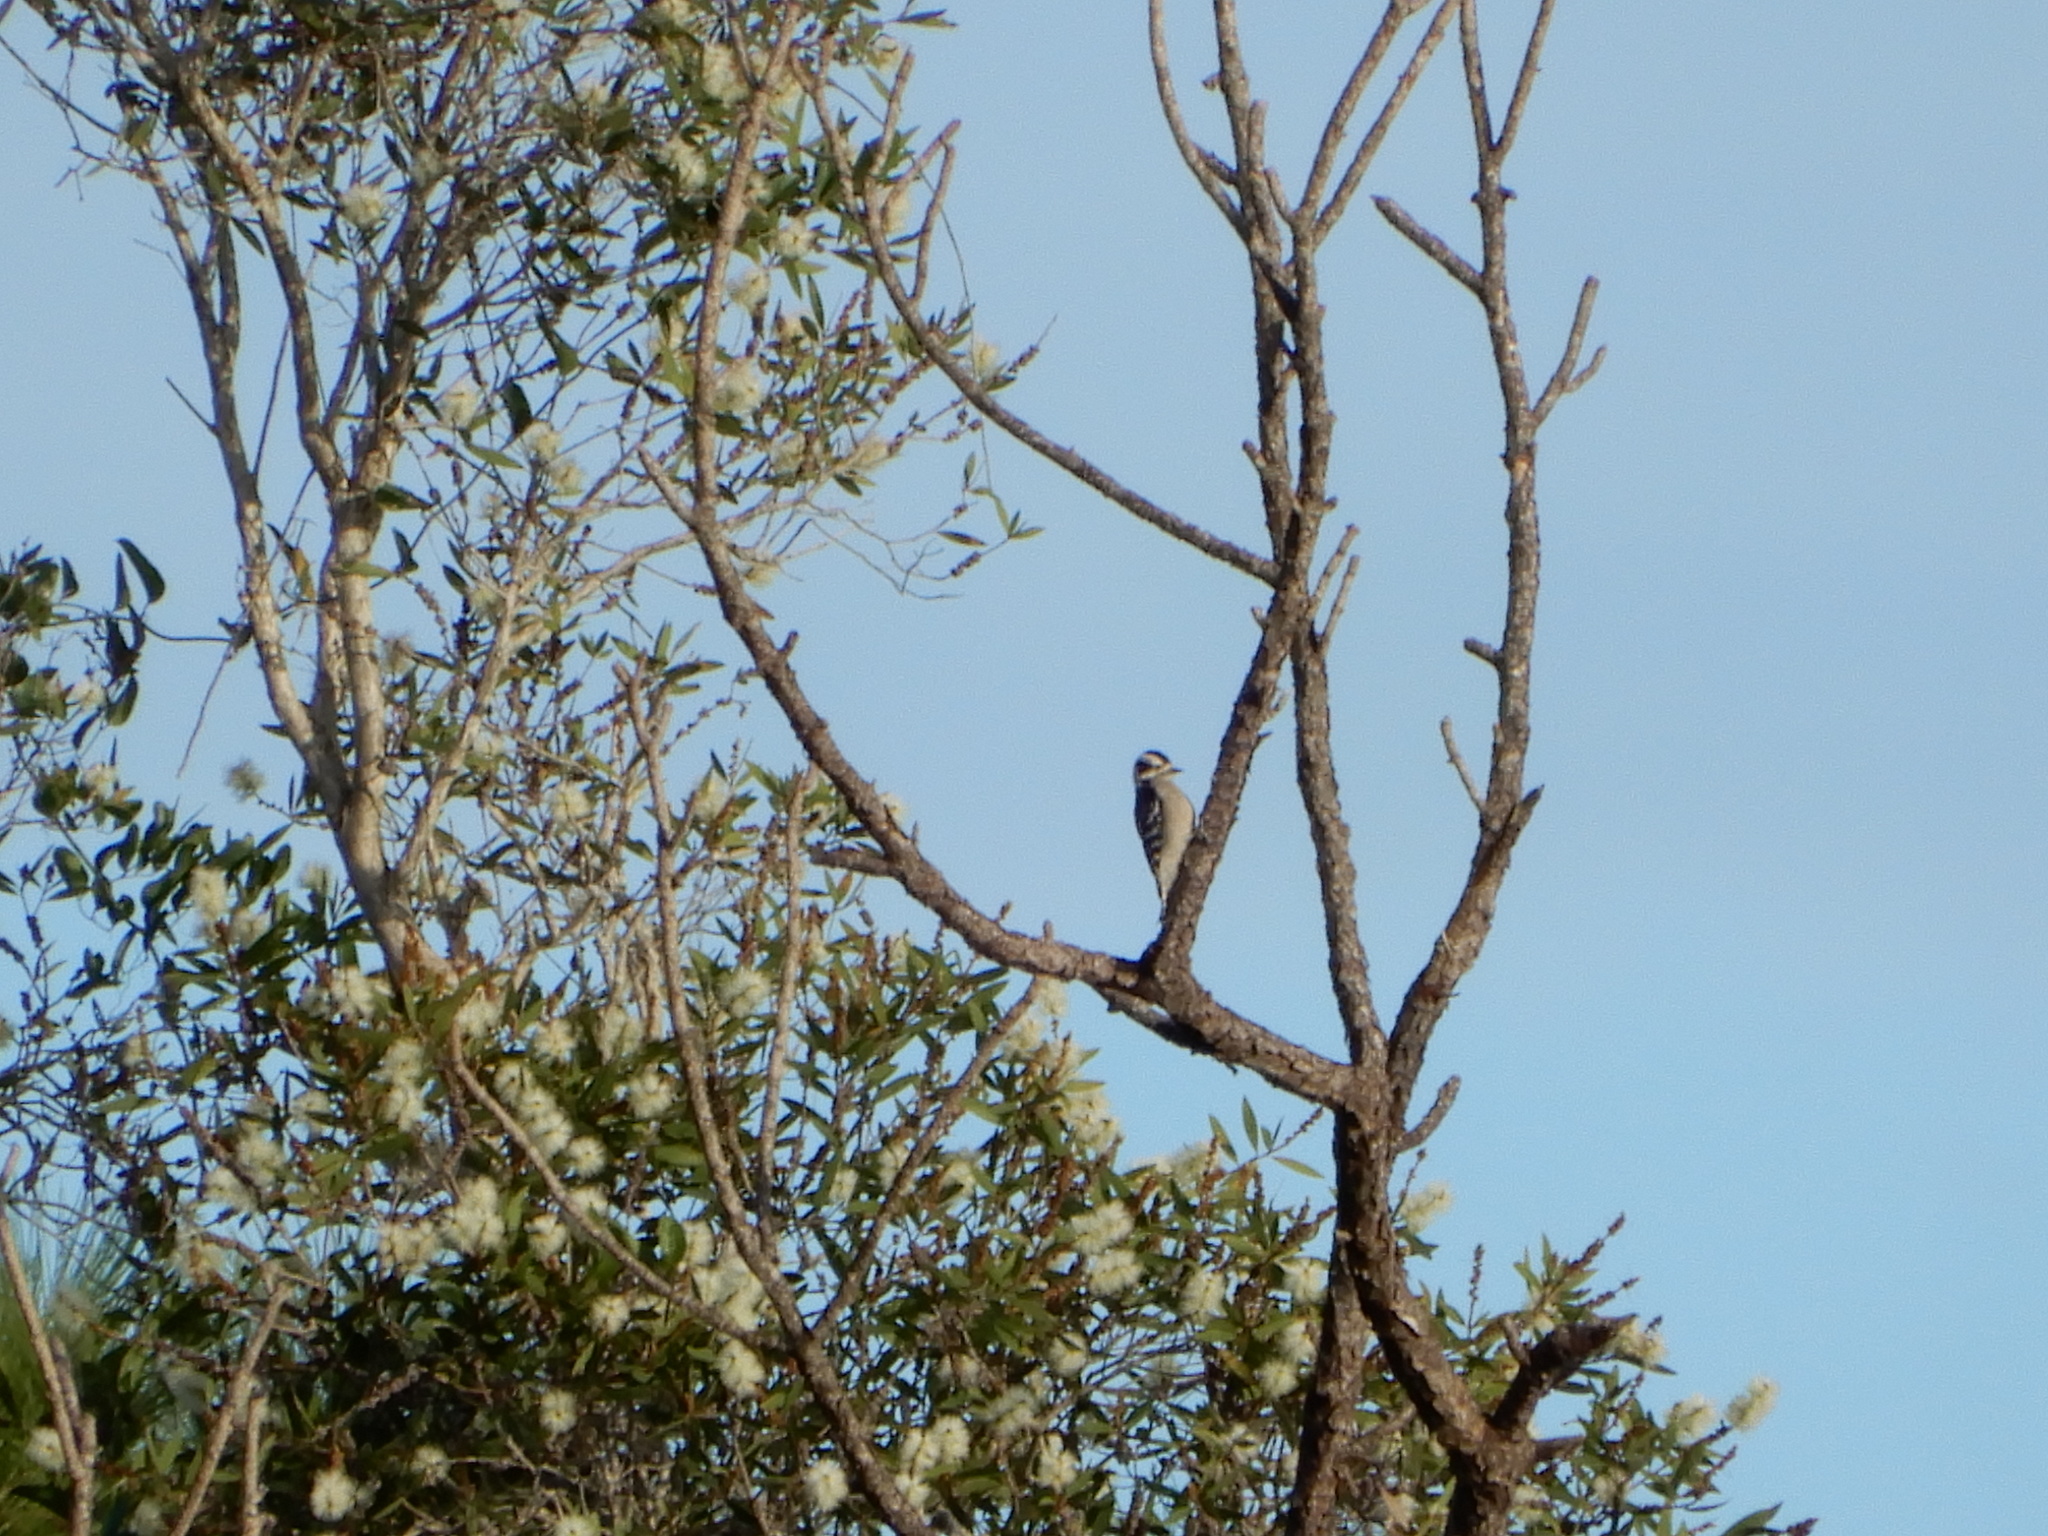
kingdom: Animalia
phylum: Chordata
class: Aves
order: Piciformes
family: Picidae
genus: Dryobates
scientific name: Dryobates pubescens
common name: Downy woodpecker
